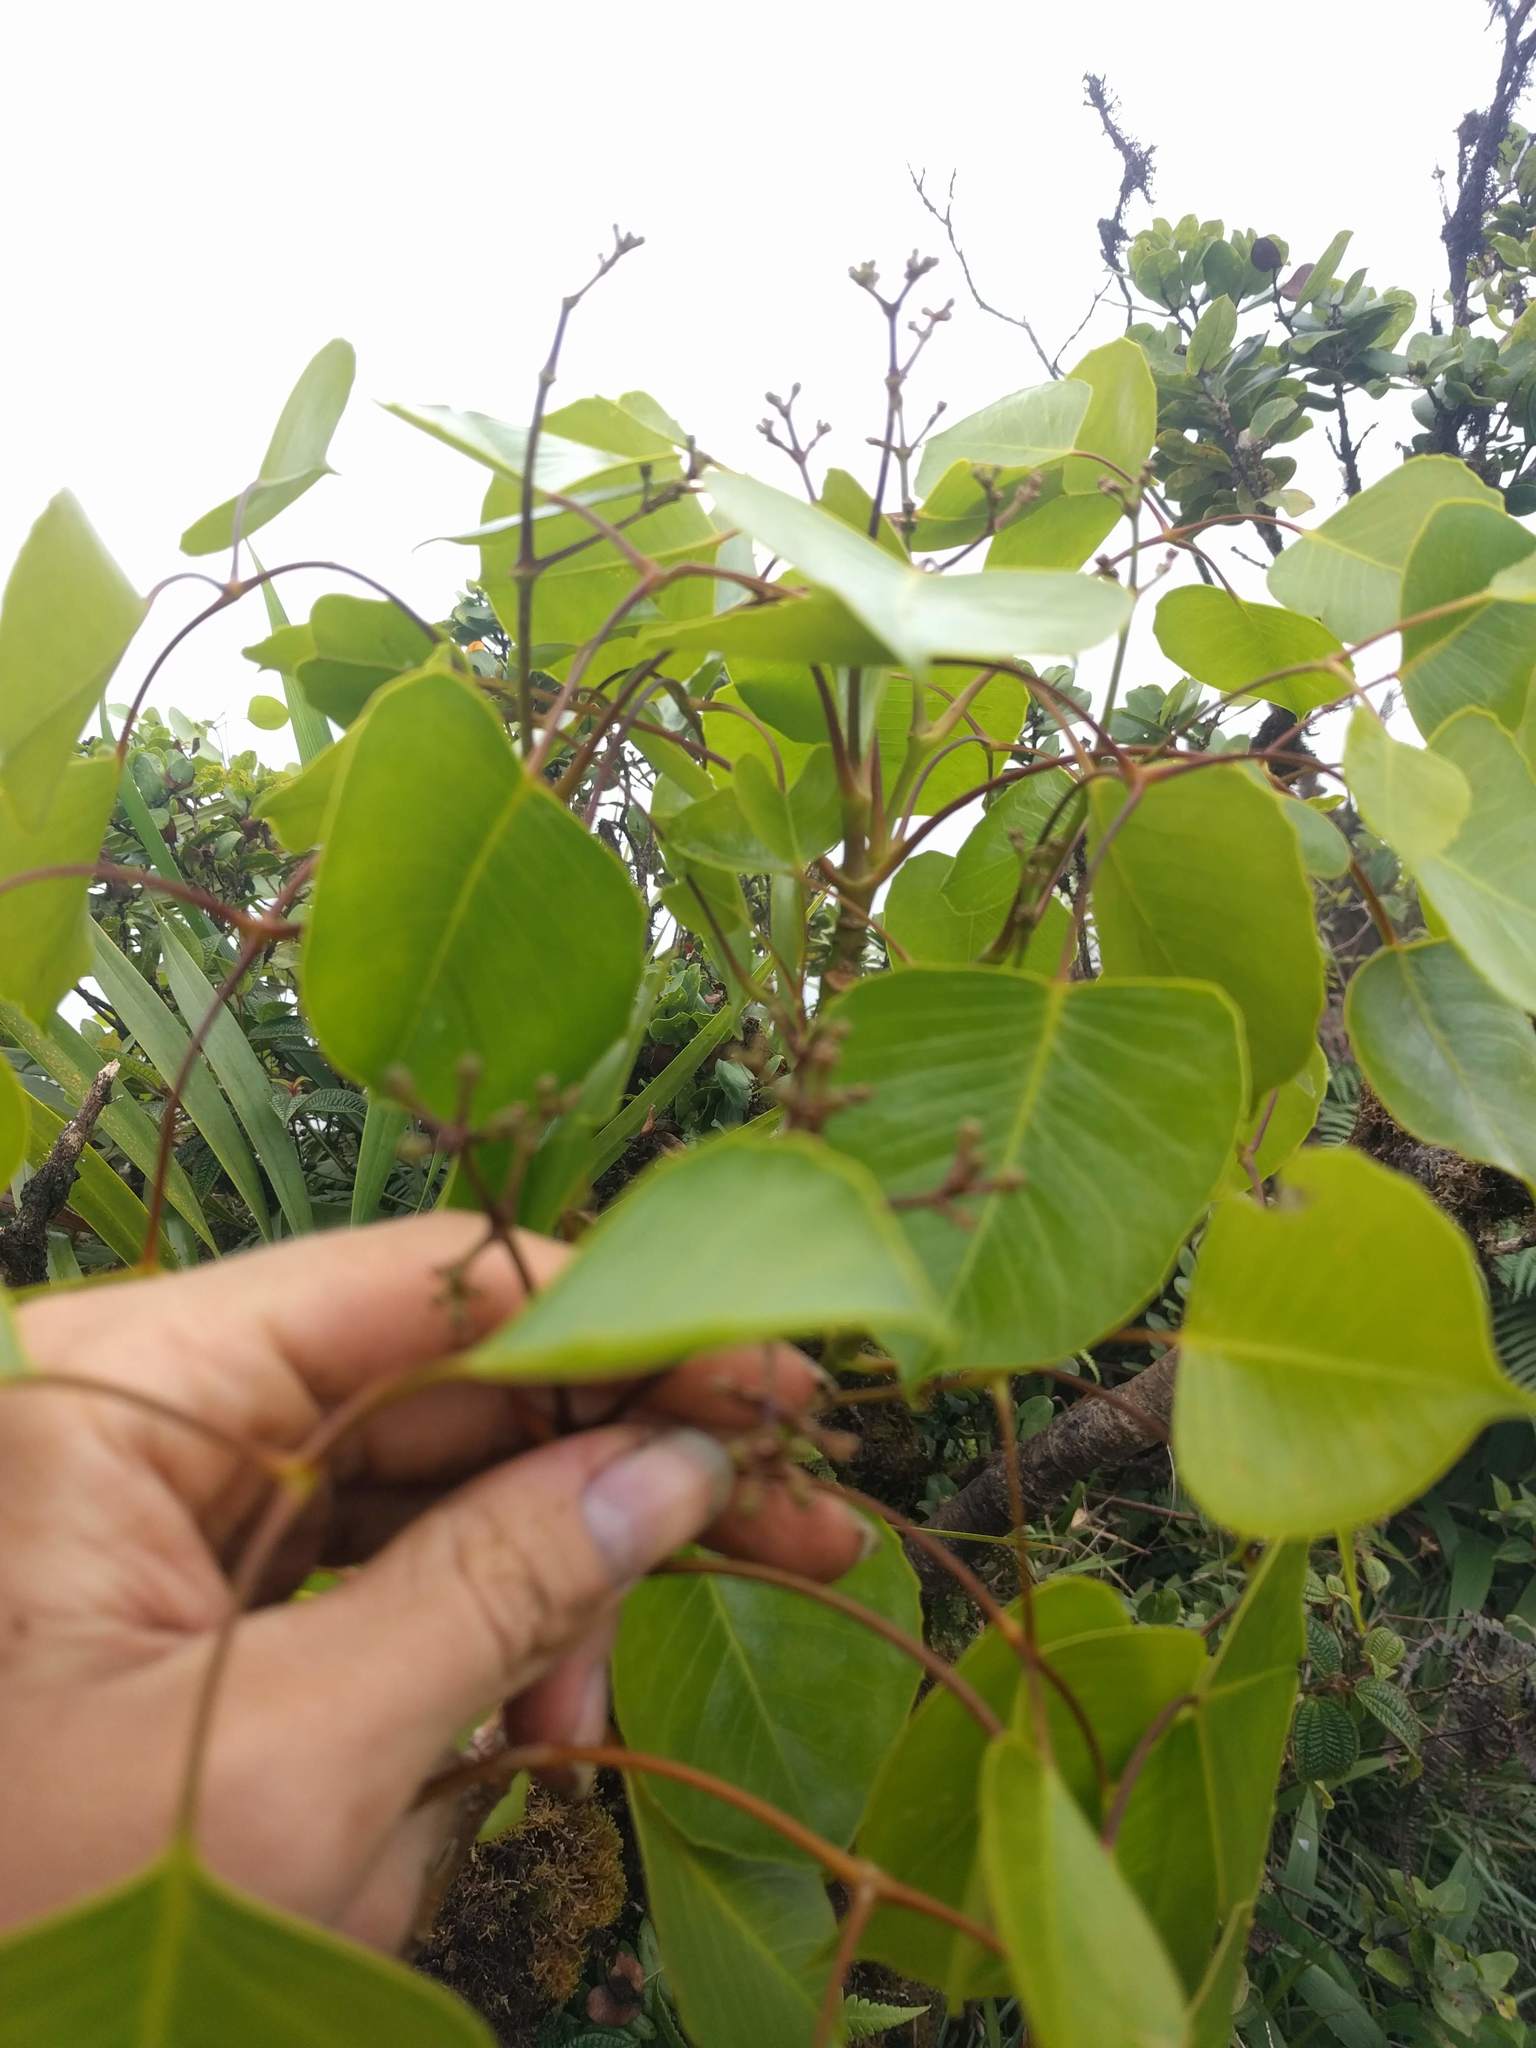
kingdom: Plantae
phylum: Tracheophyta
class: Magnoliopsida
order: Apiales
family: Araliaceae
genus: Cheirodendron
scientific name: Cheirodendron platyphyllum
